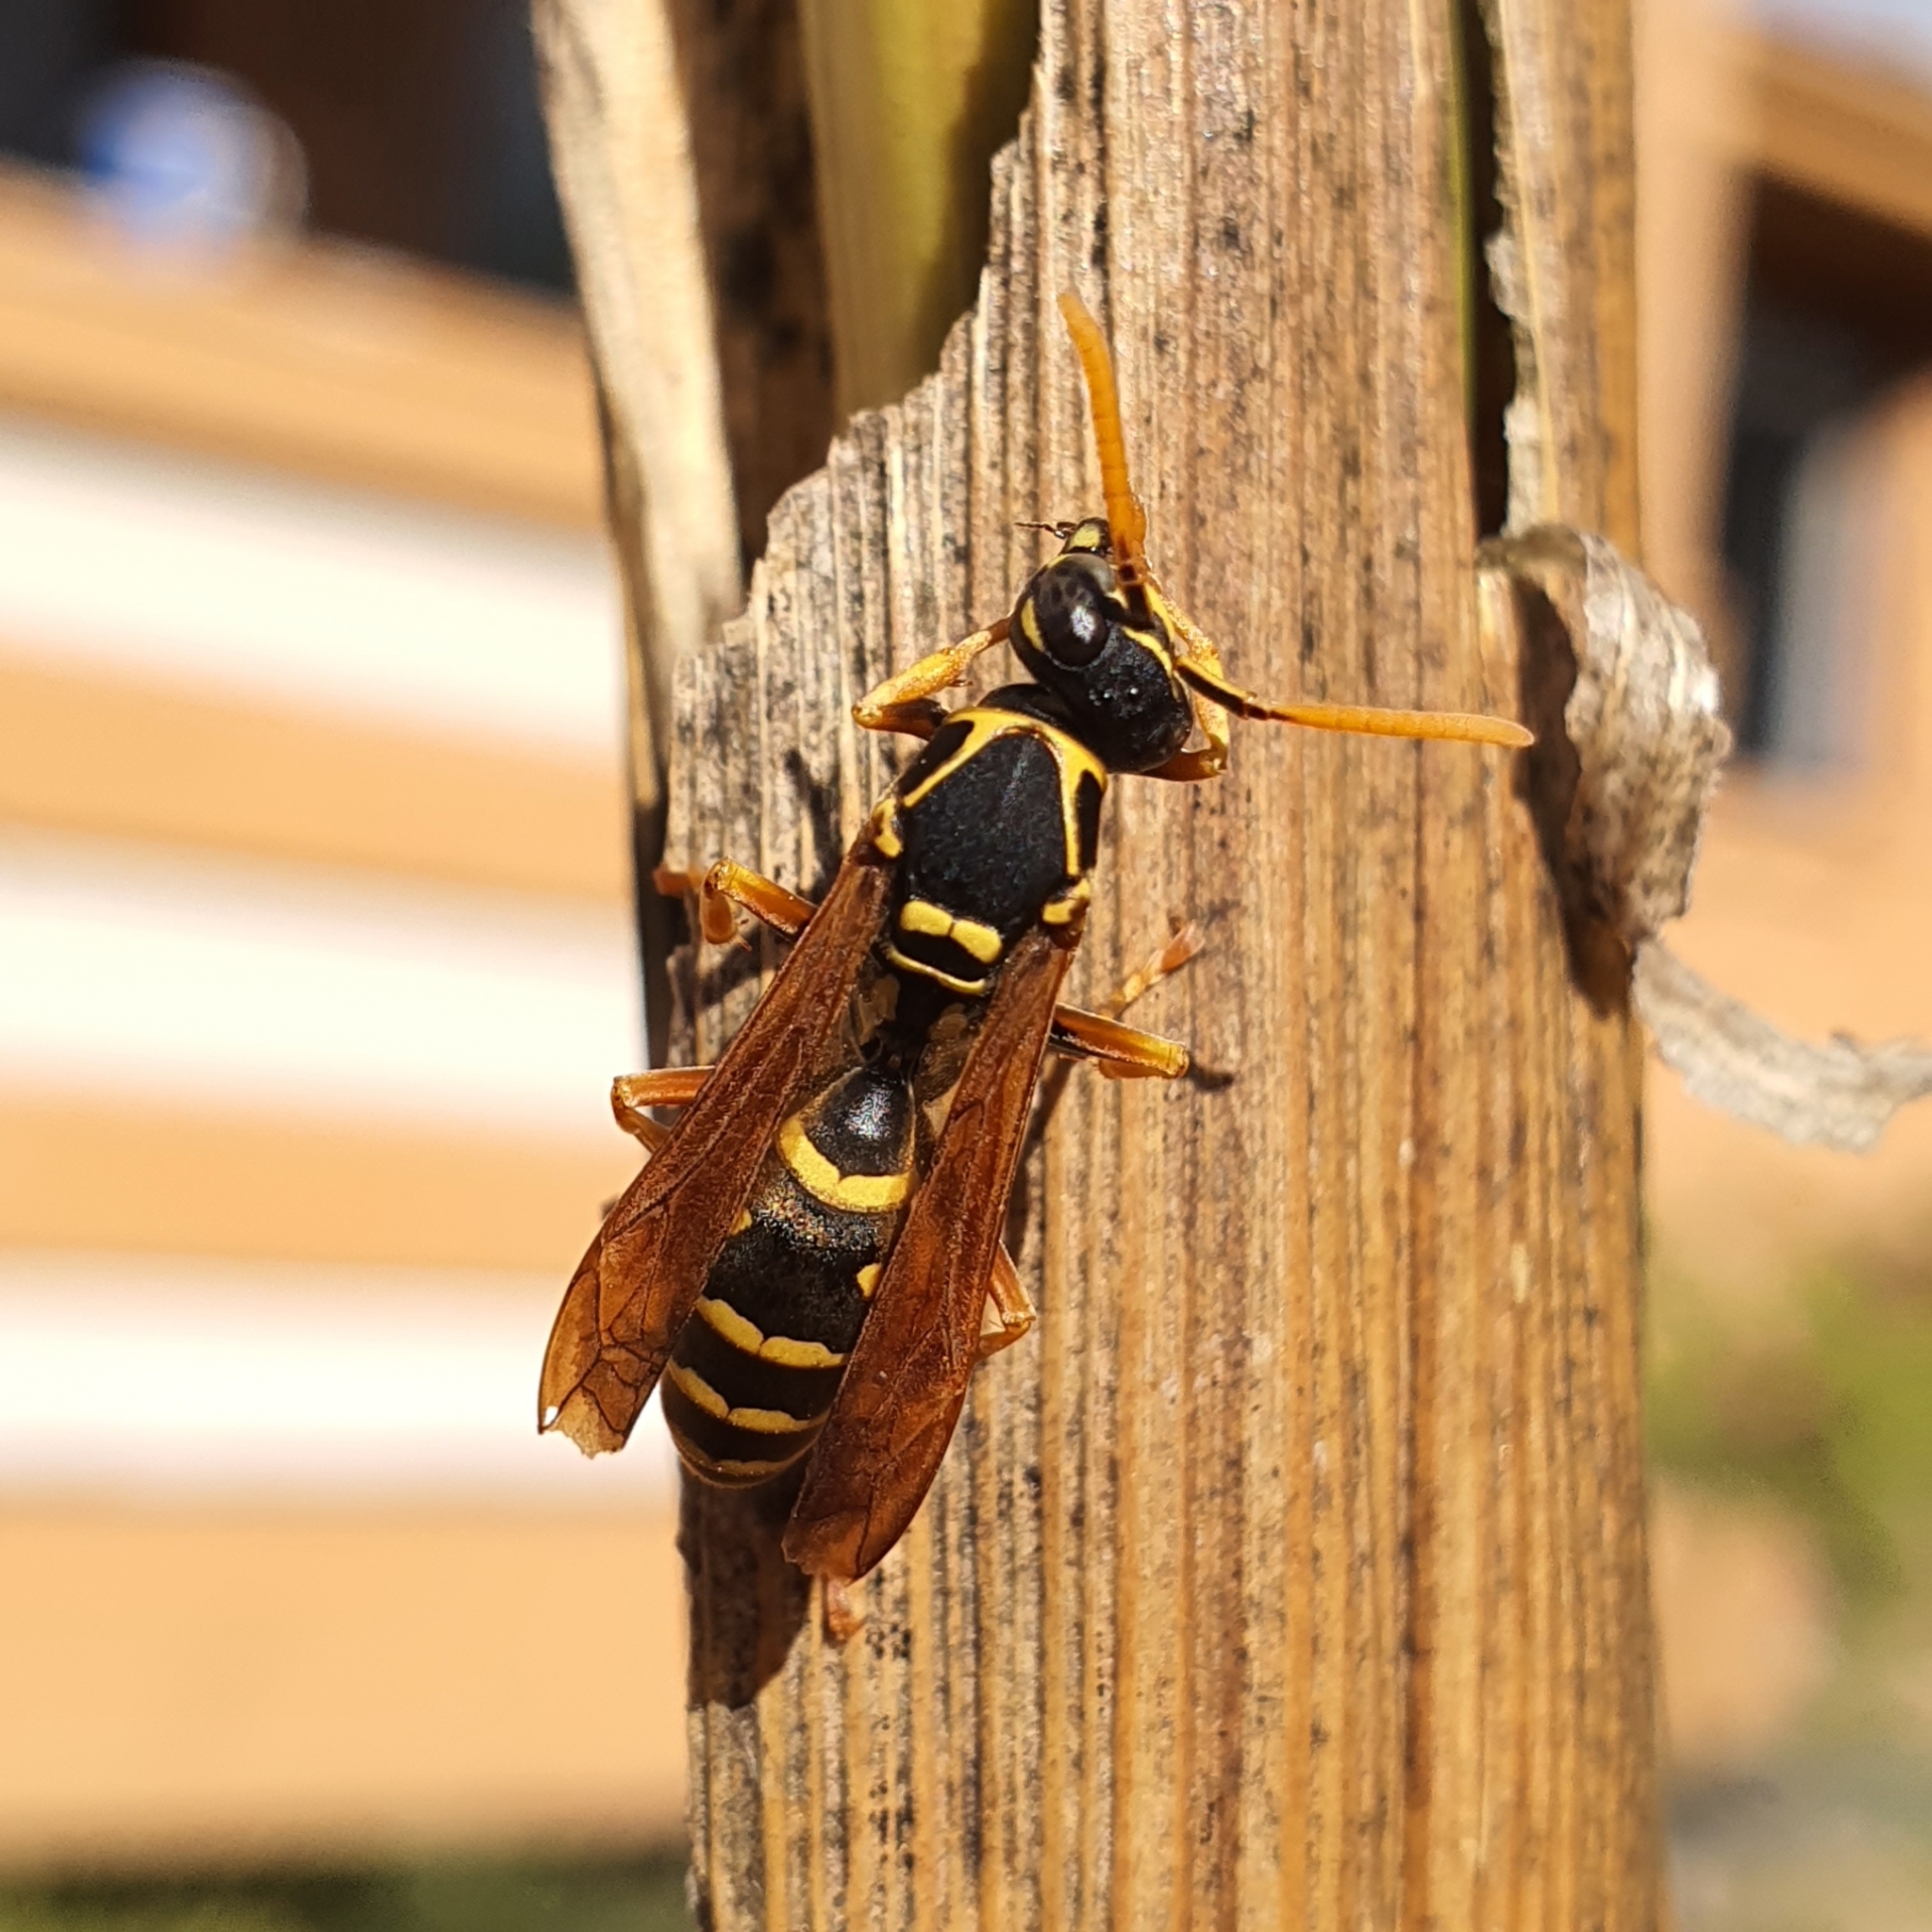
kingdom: Animalia
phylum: Arthropoda
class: Insecta
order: Hymenoptera
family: Eumenidae
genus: Polistes
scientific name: Polistes chinensis
